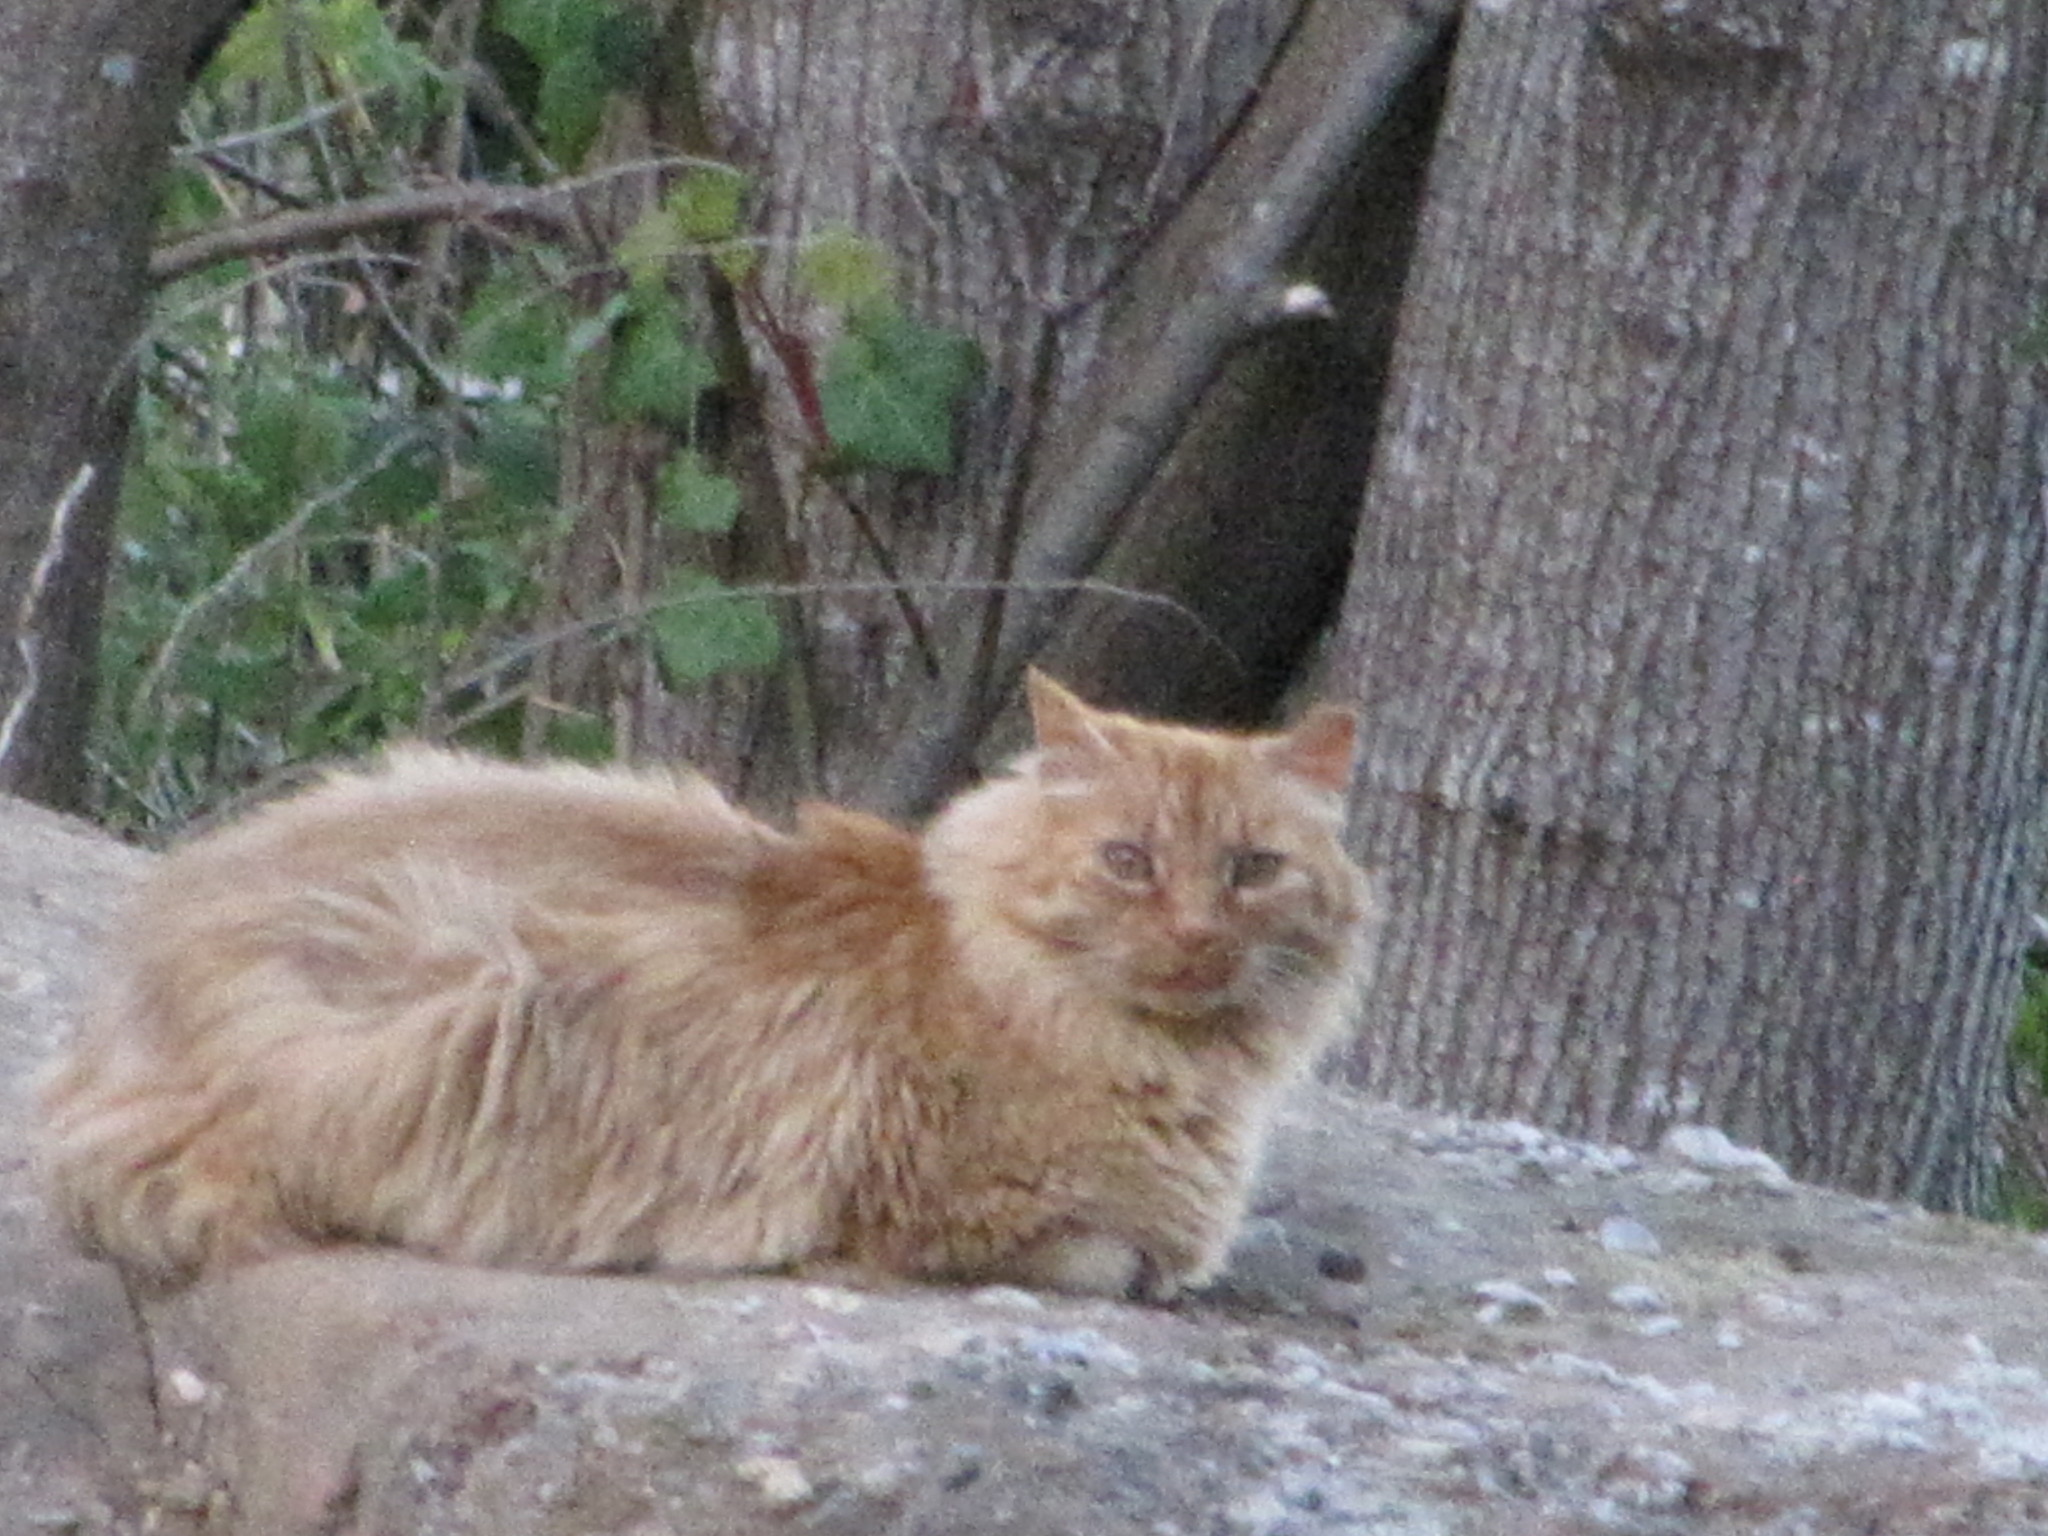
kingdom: Animalia
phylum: Chordata
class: Mammalia
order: Carnivora
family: Felidae
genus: Felis
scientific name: Felis catus
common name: Domestic cat
